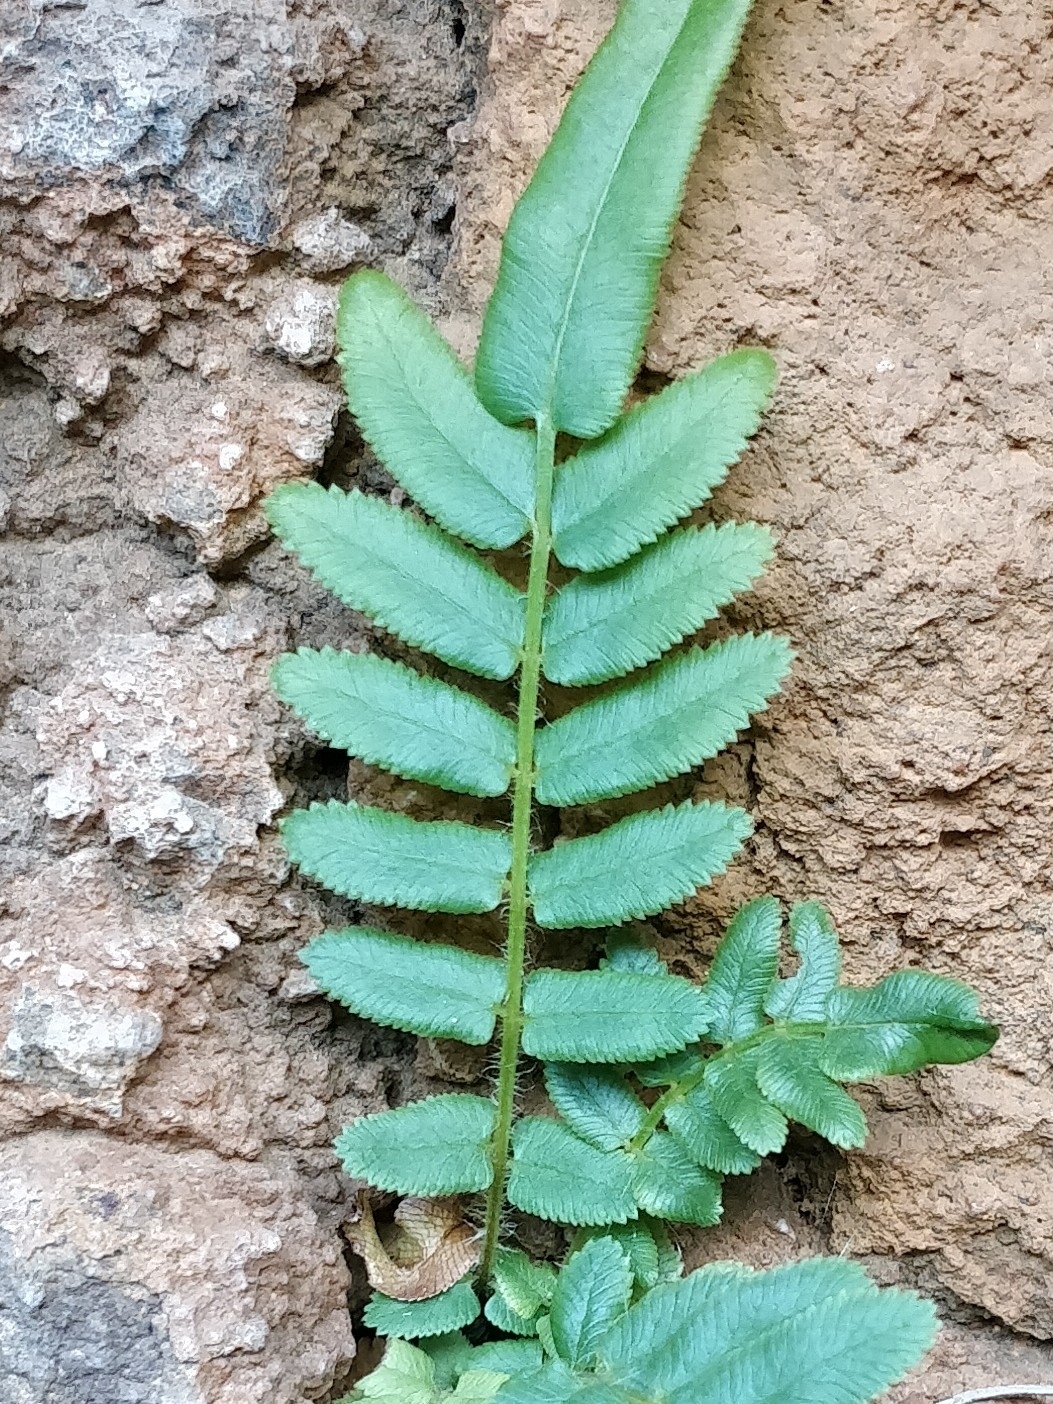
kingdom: Plantae
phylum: Tracheophyta
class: Polypodiopsida
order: Polypodiales
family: Pteridaceae
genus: Pteris
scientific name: Pteris vittata
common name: Ladder brake
